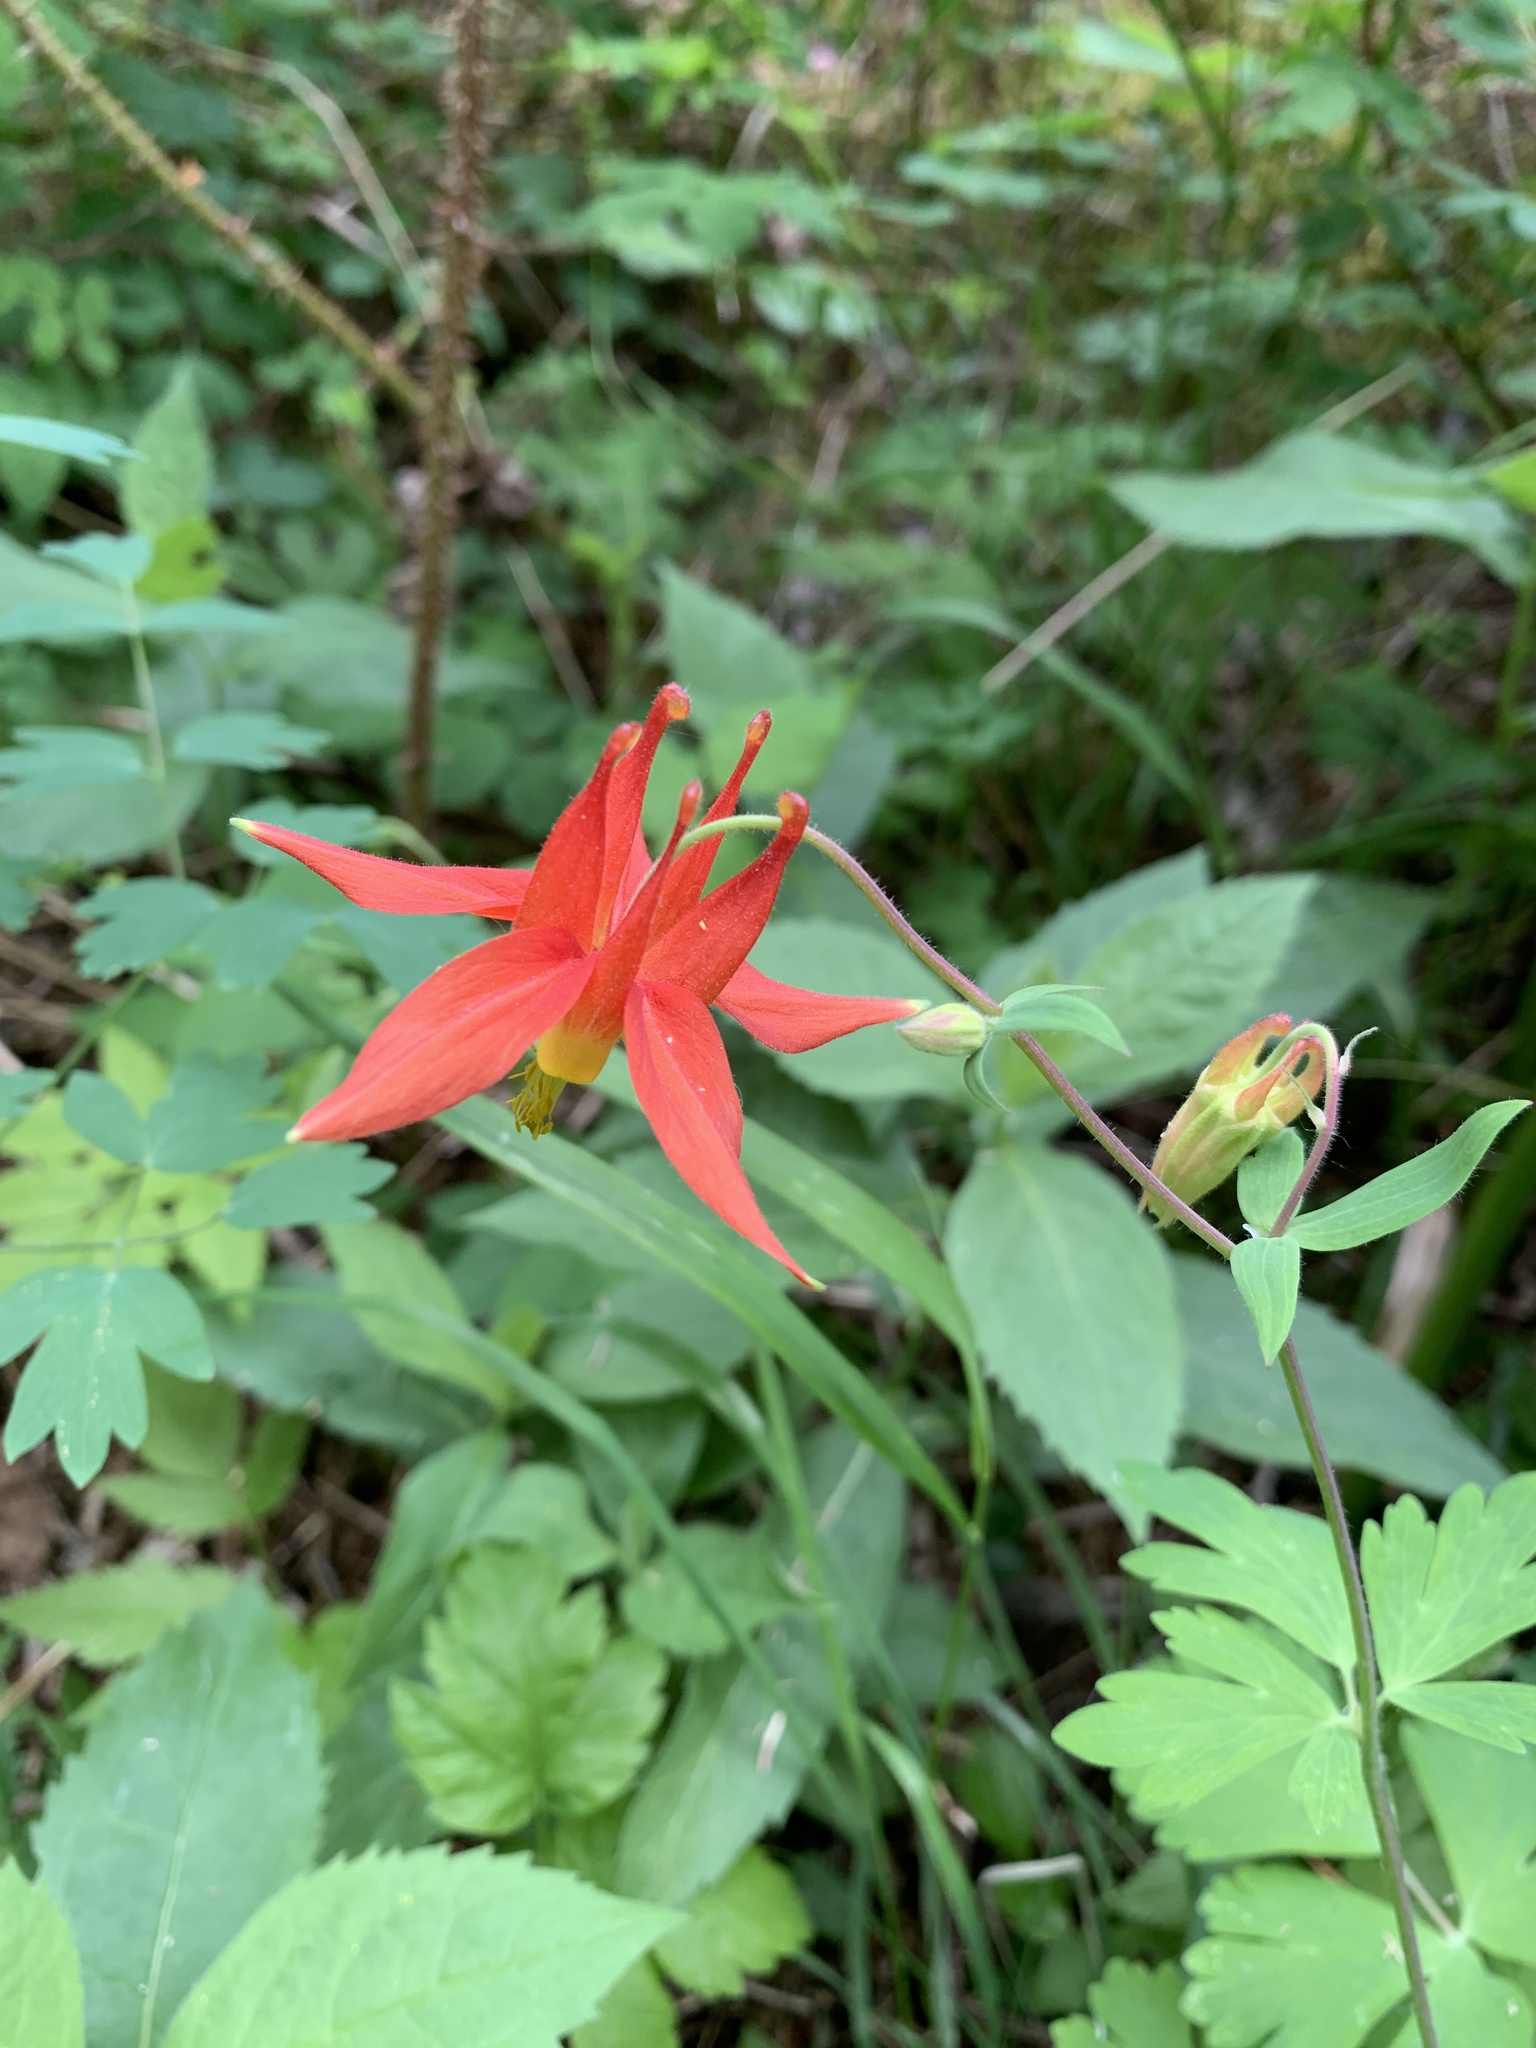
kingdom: Plantae
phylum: Tracheophyta
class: Magnoliopsida
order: Ranunculales
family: Ranunculaceae
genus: Aquilegia
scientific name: Aquilegia formosa
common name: Sitka columbine
